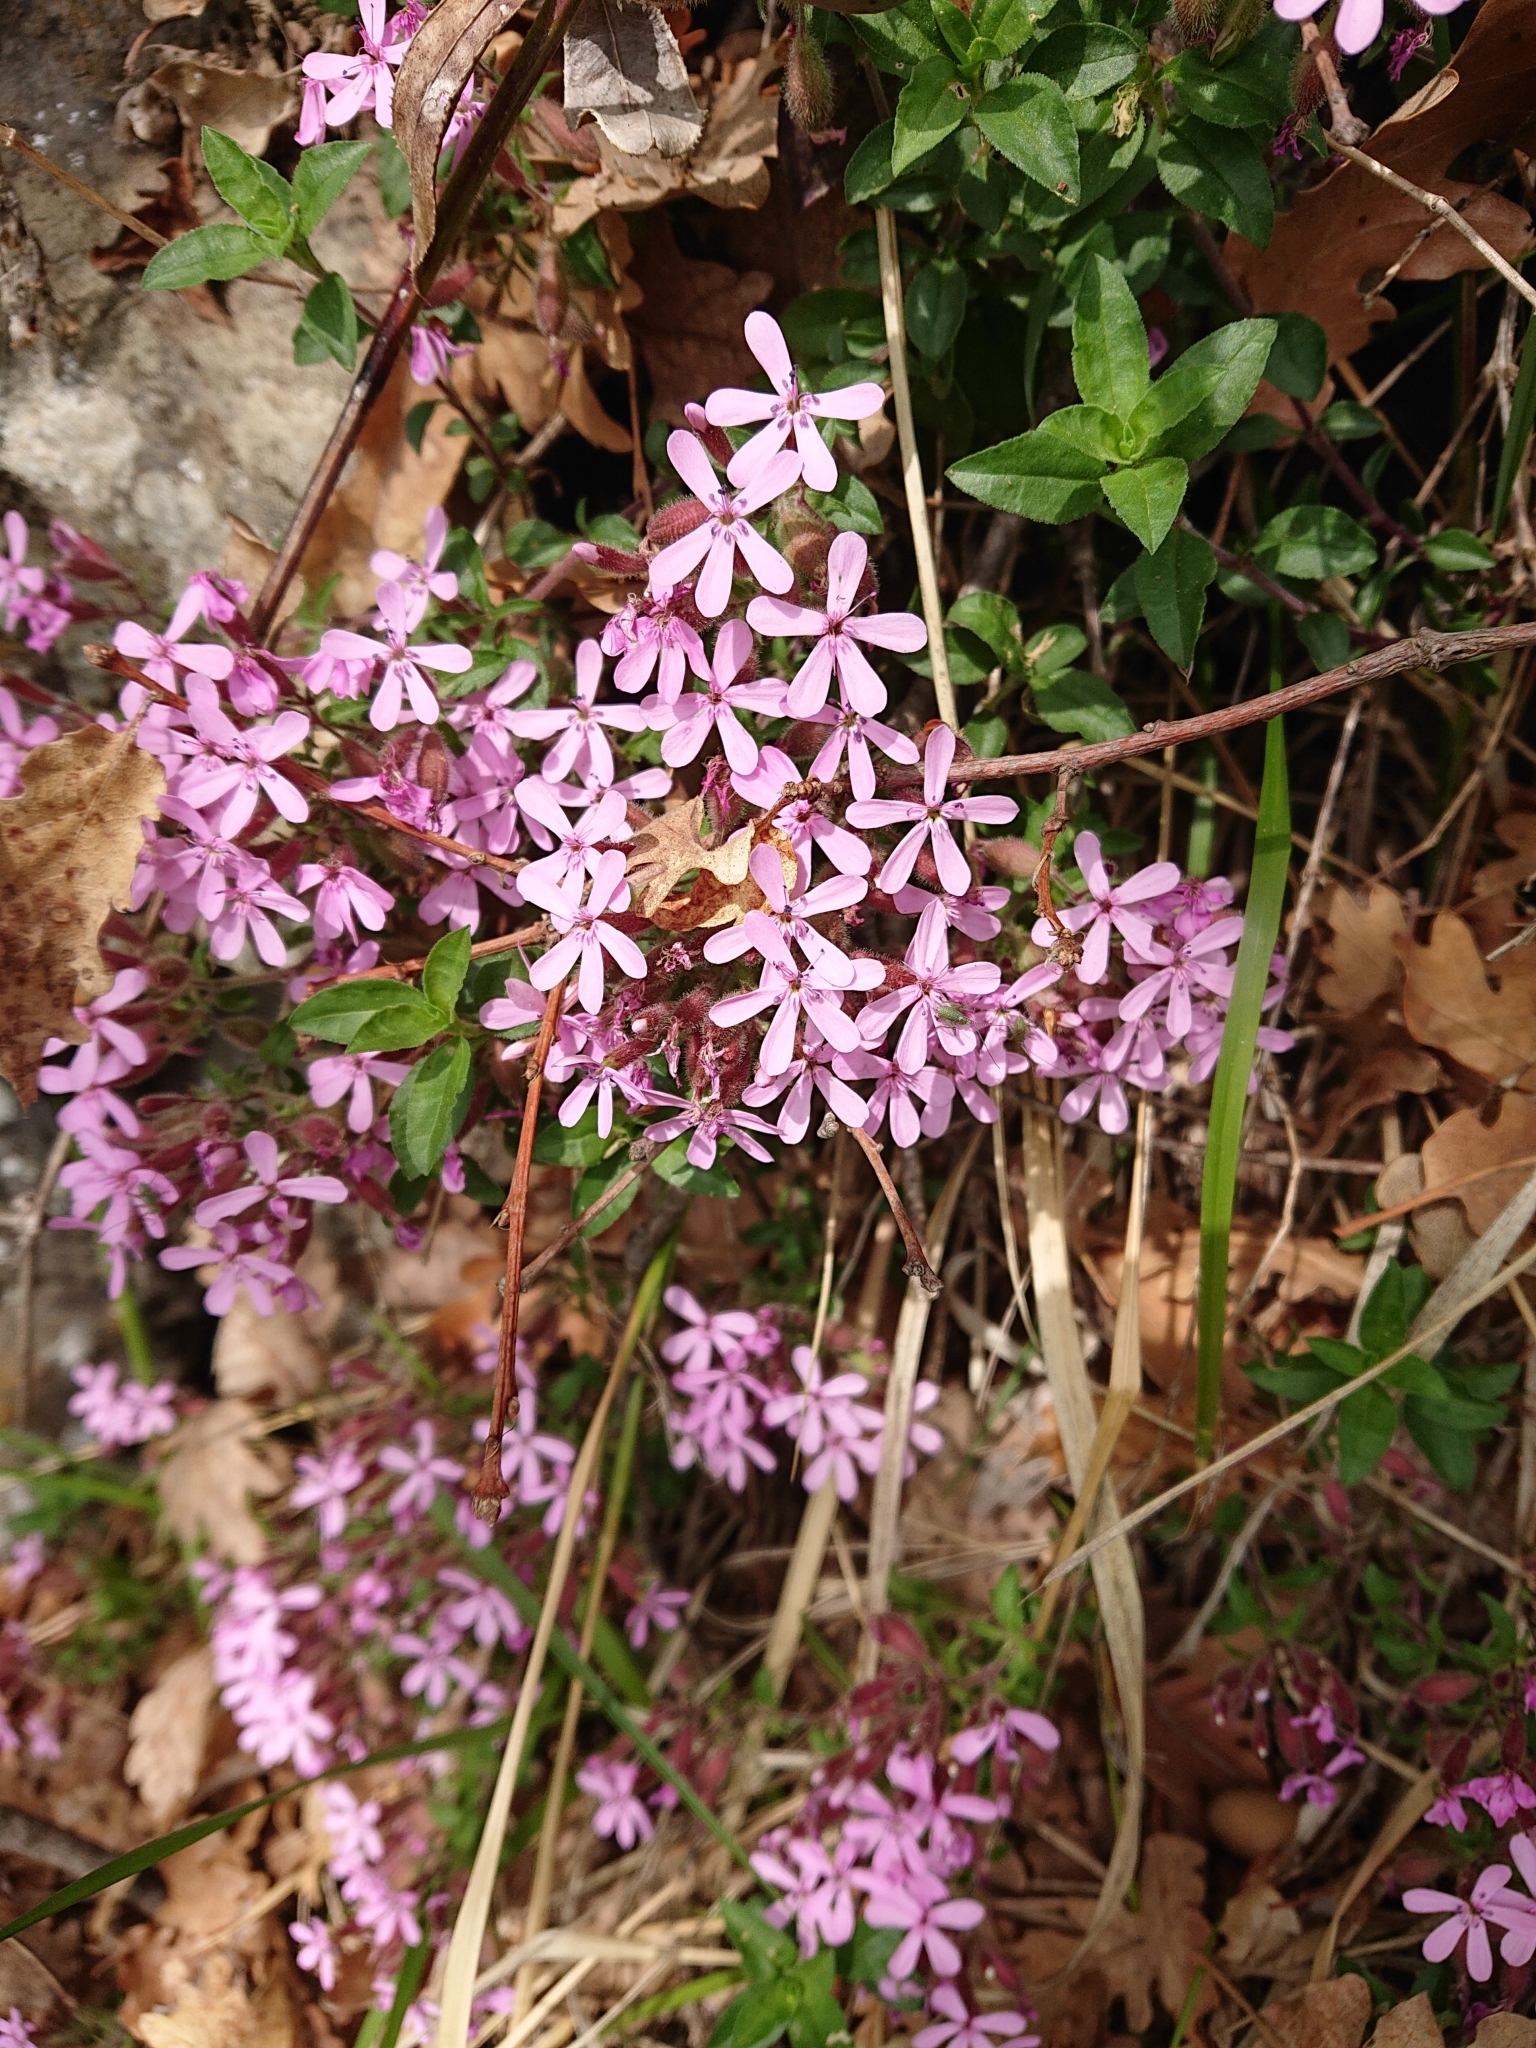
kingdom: Plantae
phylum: Tracheophyta
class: Magnoliopsida
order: Caryophyllales
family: Caryophyllaceae
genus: Saponaria
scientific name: Saponaria ocymoides
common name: Rock soapwort
